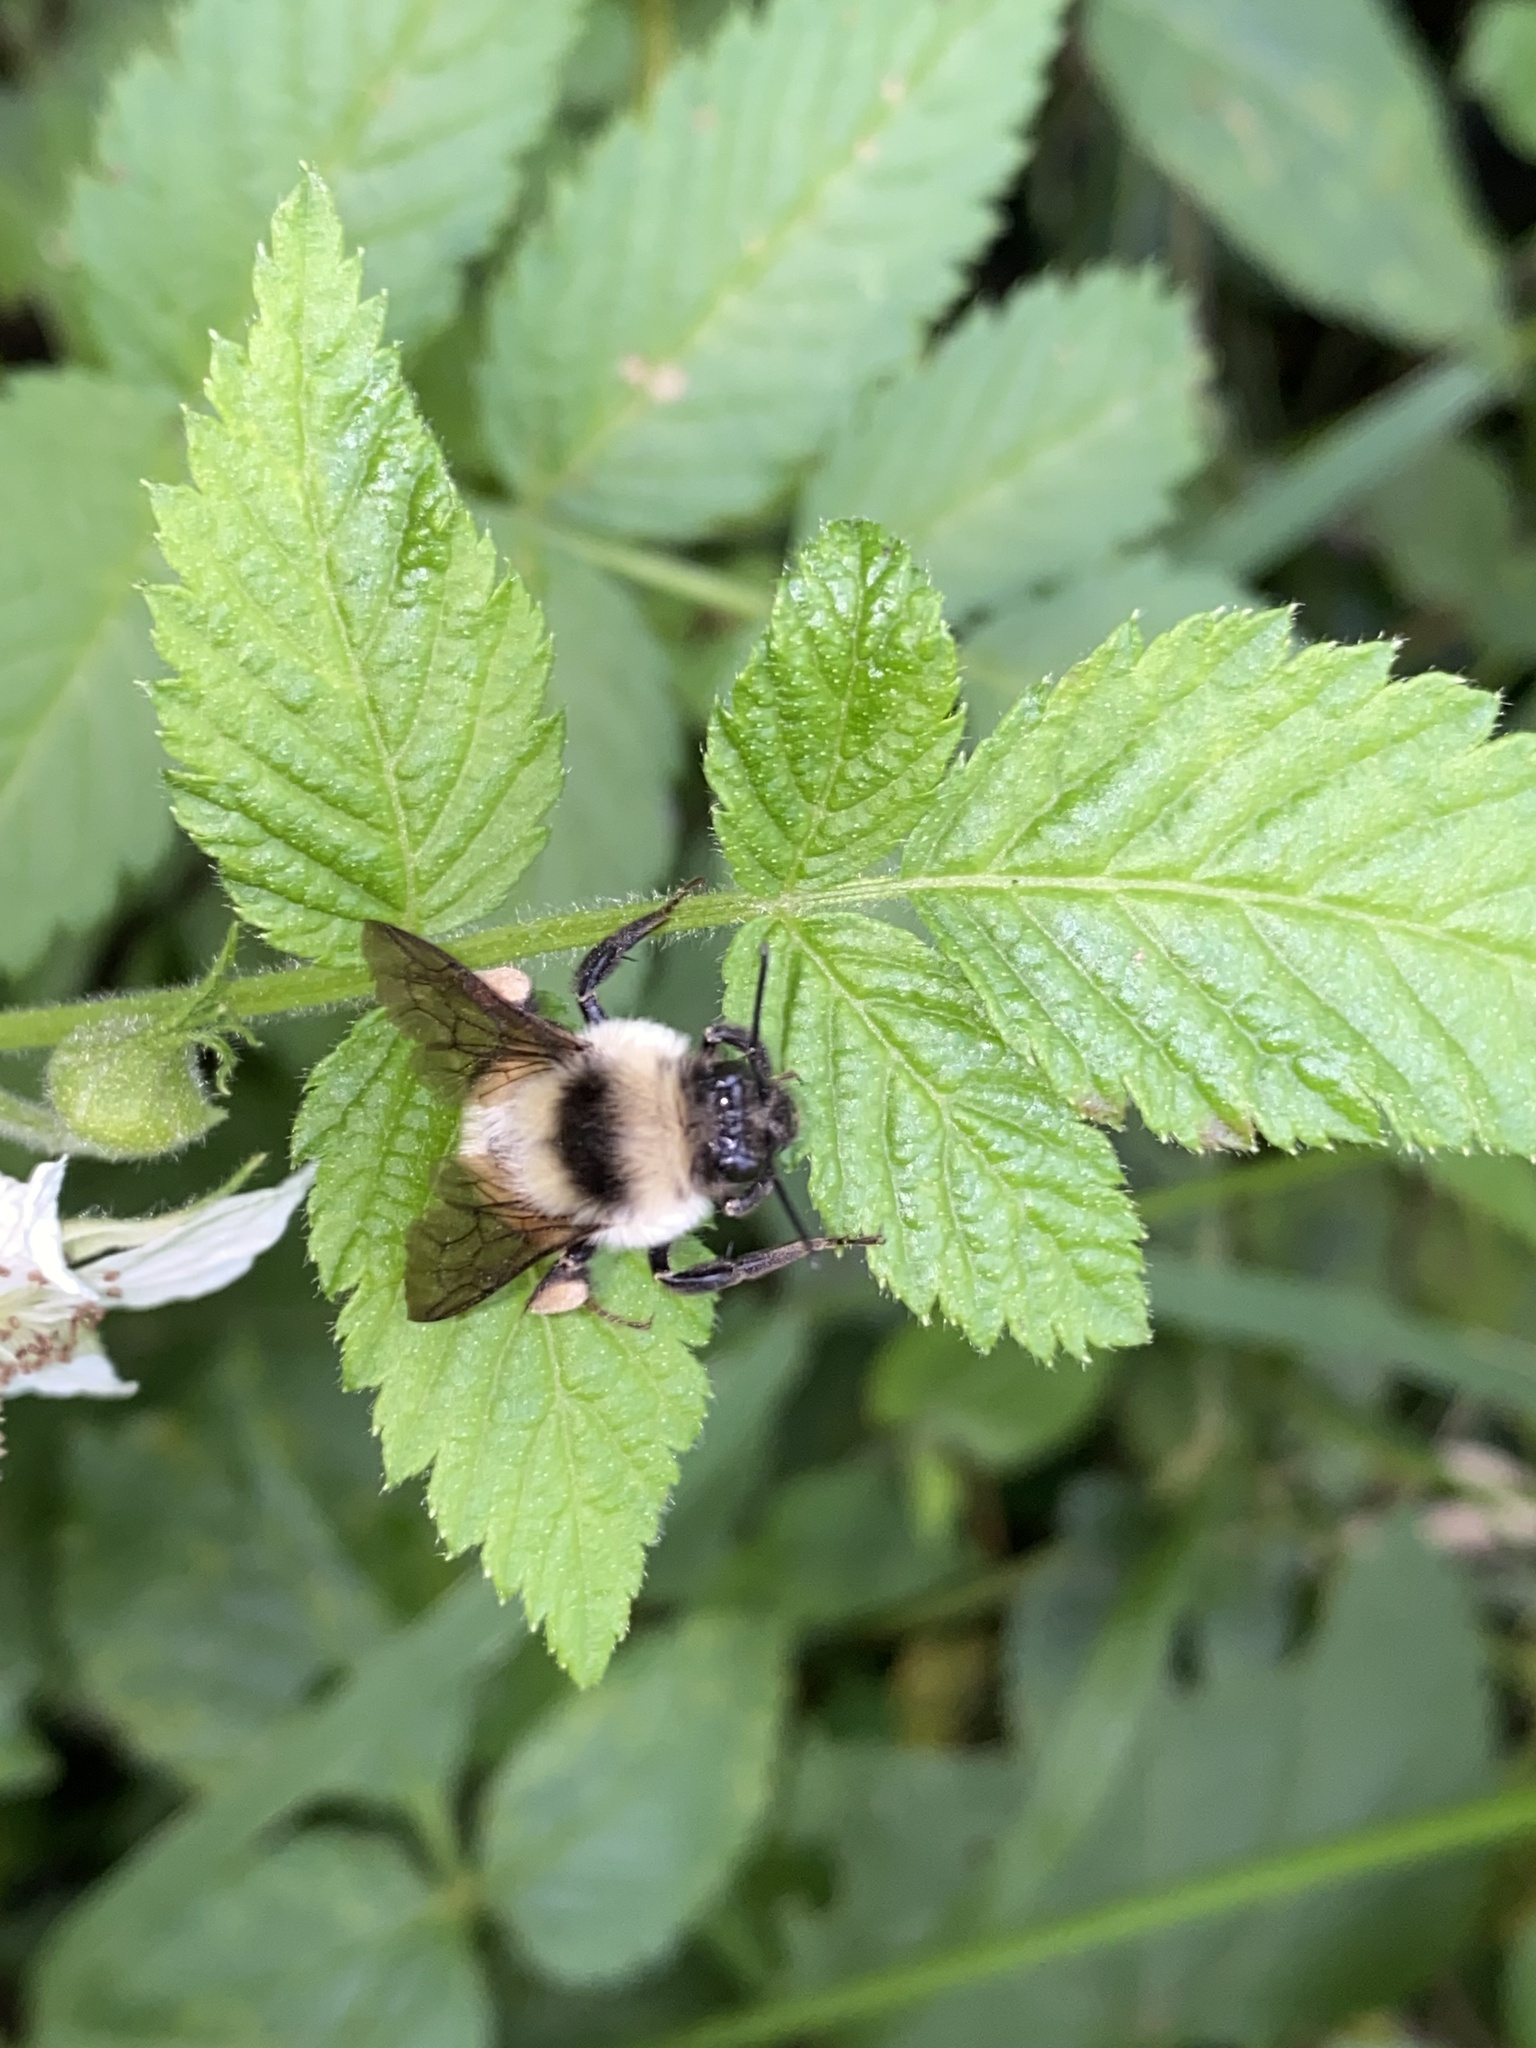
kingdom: Animalia
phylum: Arthropoda
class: Insecta
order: Hymenoptera
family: Apidae
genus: Bombus
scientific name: Bombus wilmattae
